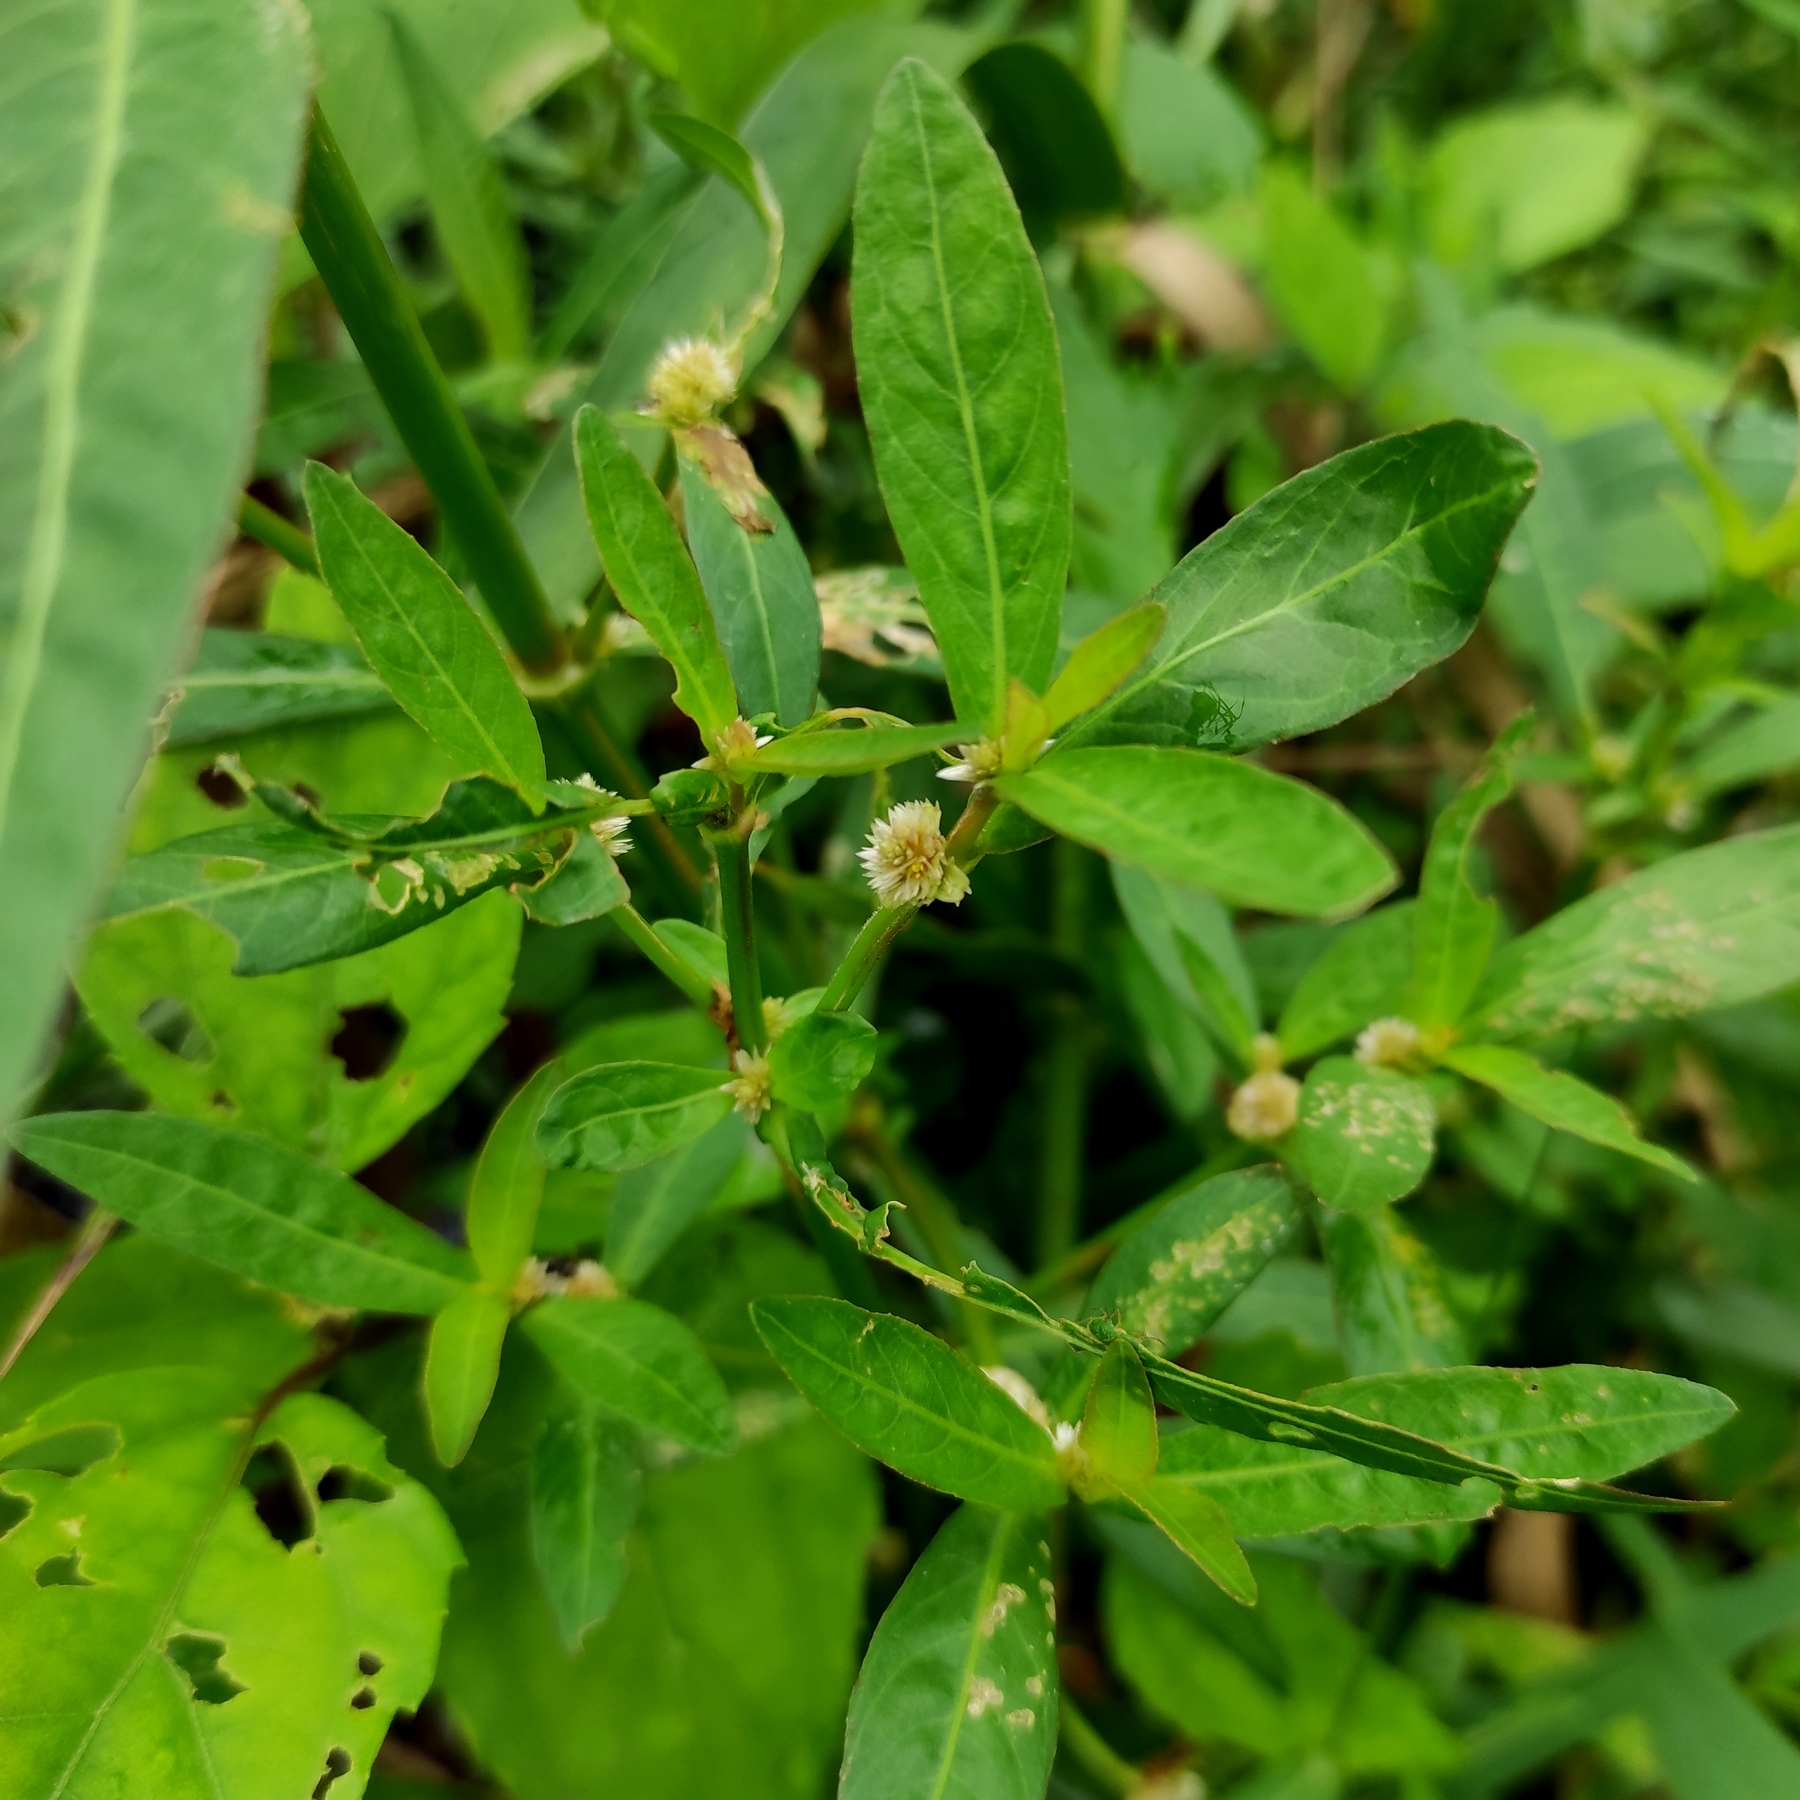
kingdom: Plantae
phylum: Tracheophyta
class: Magnoliopsida
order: Caryophyllales
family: Amaranthaceae
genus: Alternanthera
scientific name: Alternanthera sessilis
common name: Sessile joyweed
